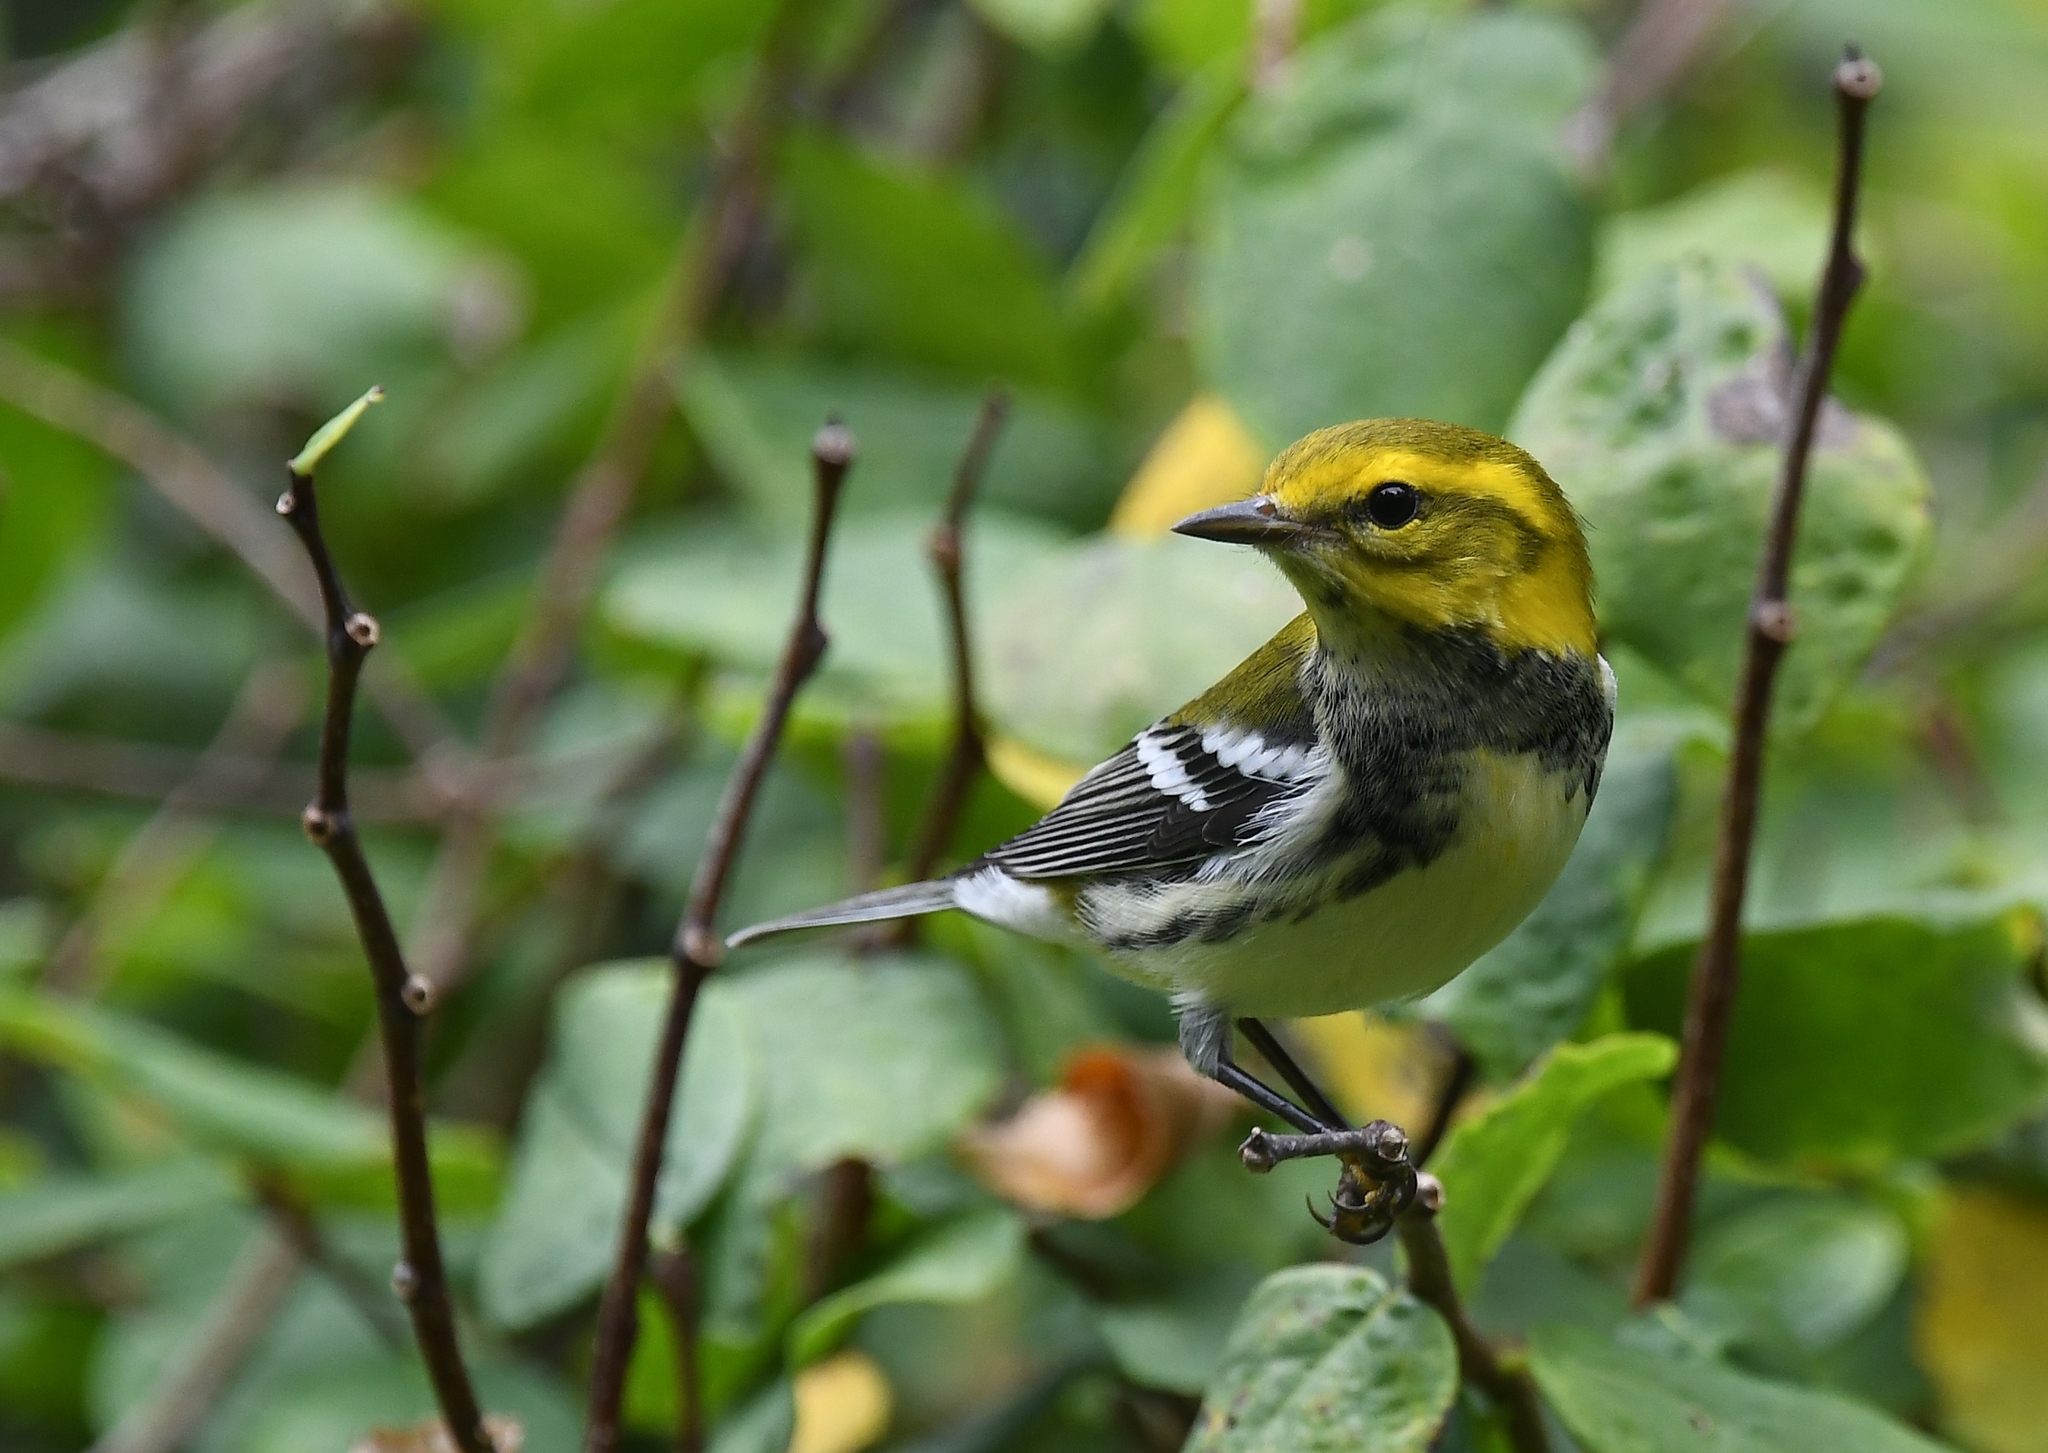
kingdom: Animalia
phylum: Chordata
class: Aves
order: Passeriformes
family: Parulidae
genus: Setophaga
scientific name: Setophaga virens
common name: Black-throated green warbler
